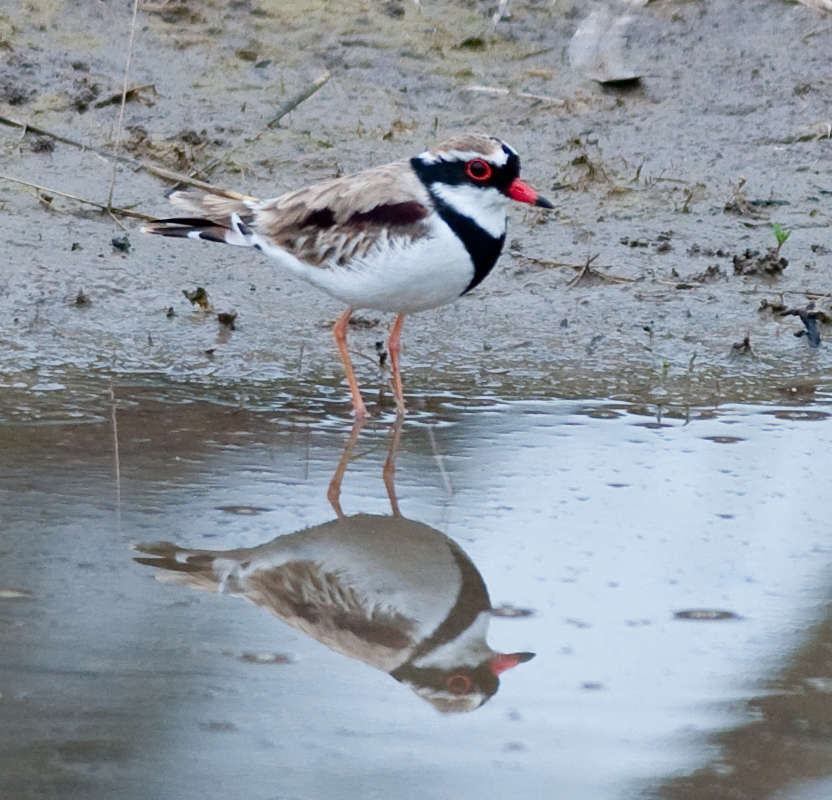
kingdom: Animalia
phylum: Chordata
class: Aves
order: Charadriiformes
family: Charadriidae
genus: Elseyornis
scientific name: Elseyornis melanops
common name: Black-fronted dotterel
